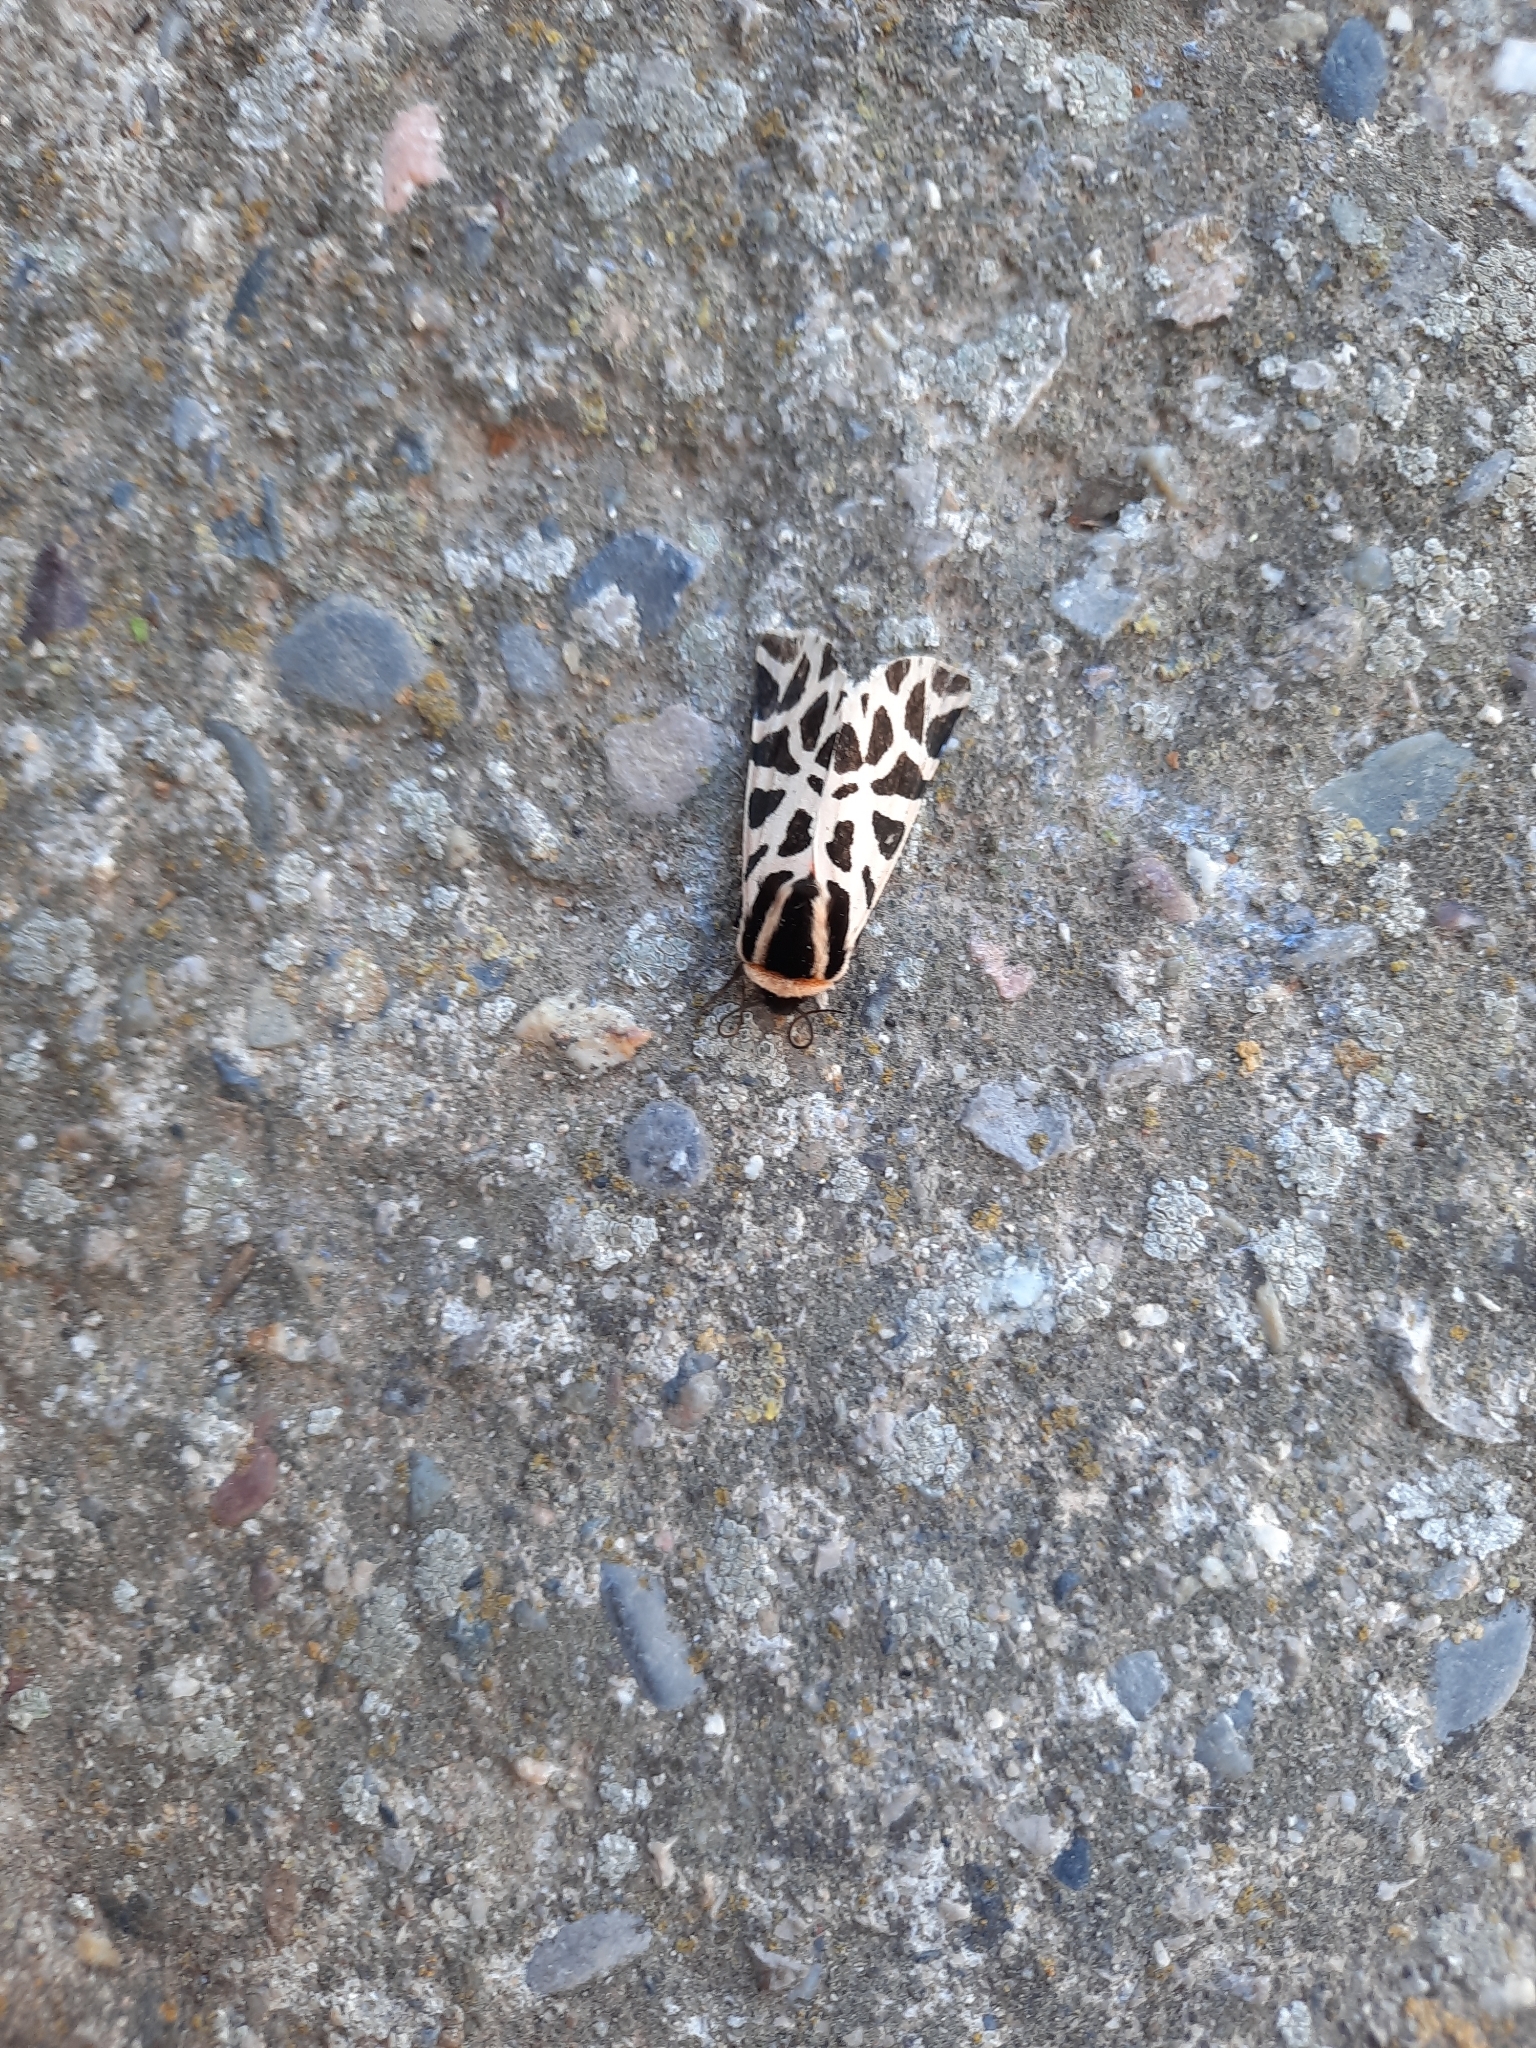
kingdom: Animalia
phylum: Arthropoda
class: Insecta
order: Lepidoptera
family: Erebidae
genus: Cymbalophora
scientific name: Cymbalophora pudica
